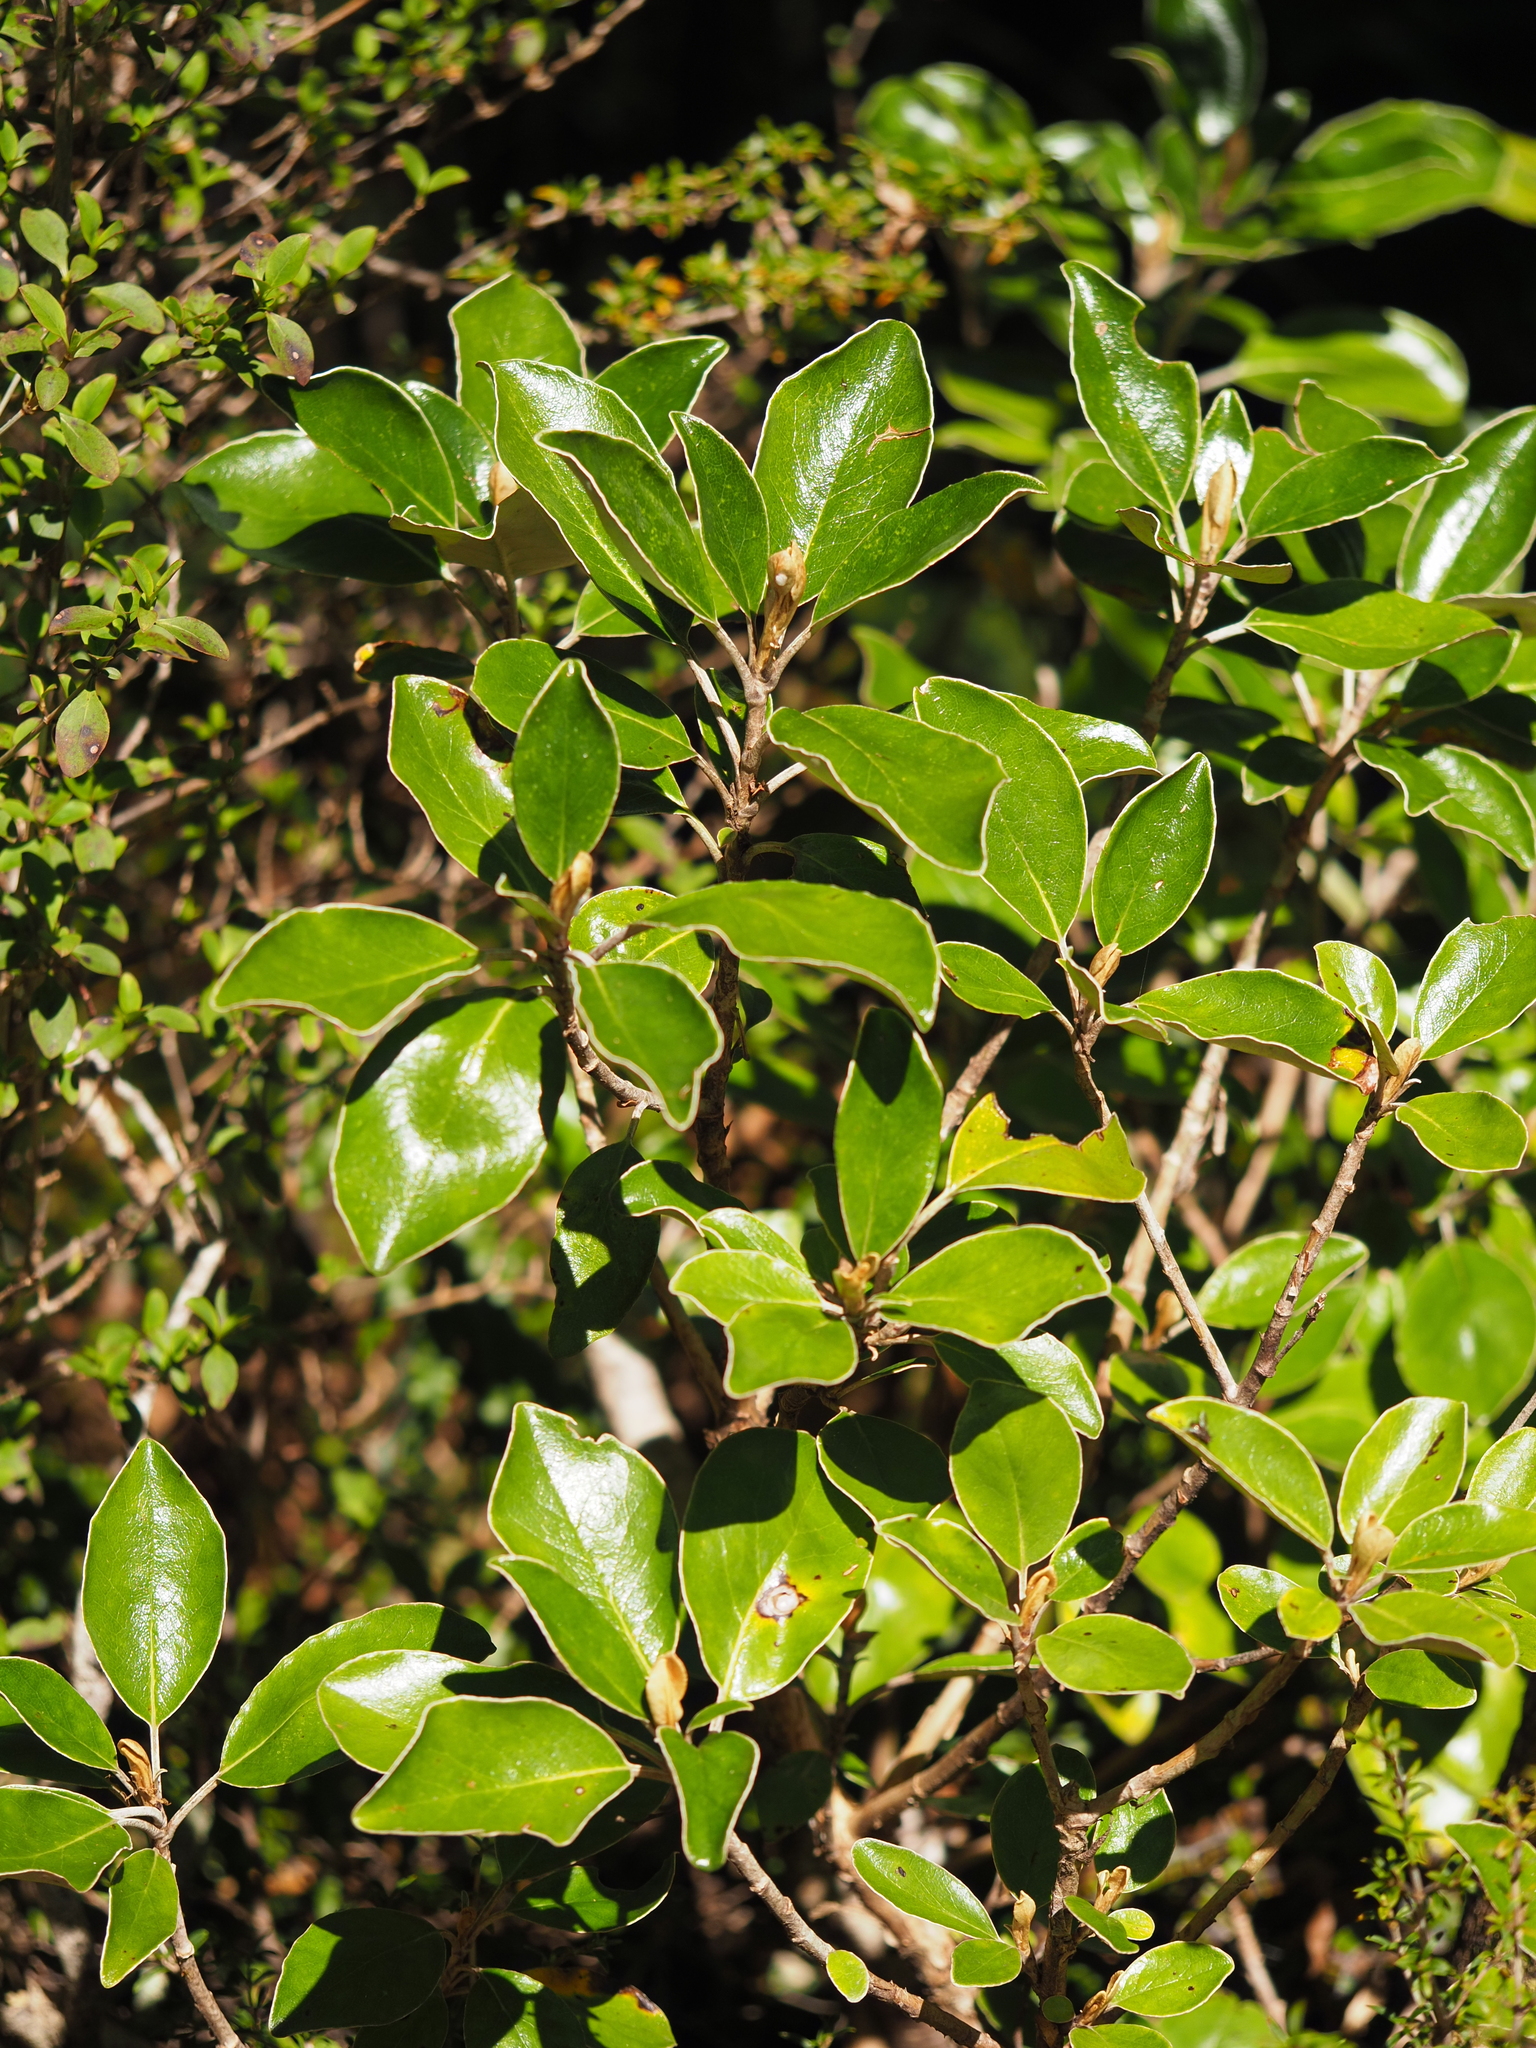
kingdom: Plantae
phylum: Tracheophyta
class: Magnoliopsida
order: Asterales
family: Asteraceae
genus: Brachyglottis
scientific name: Brachyglottis buchananii
